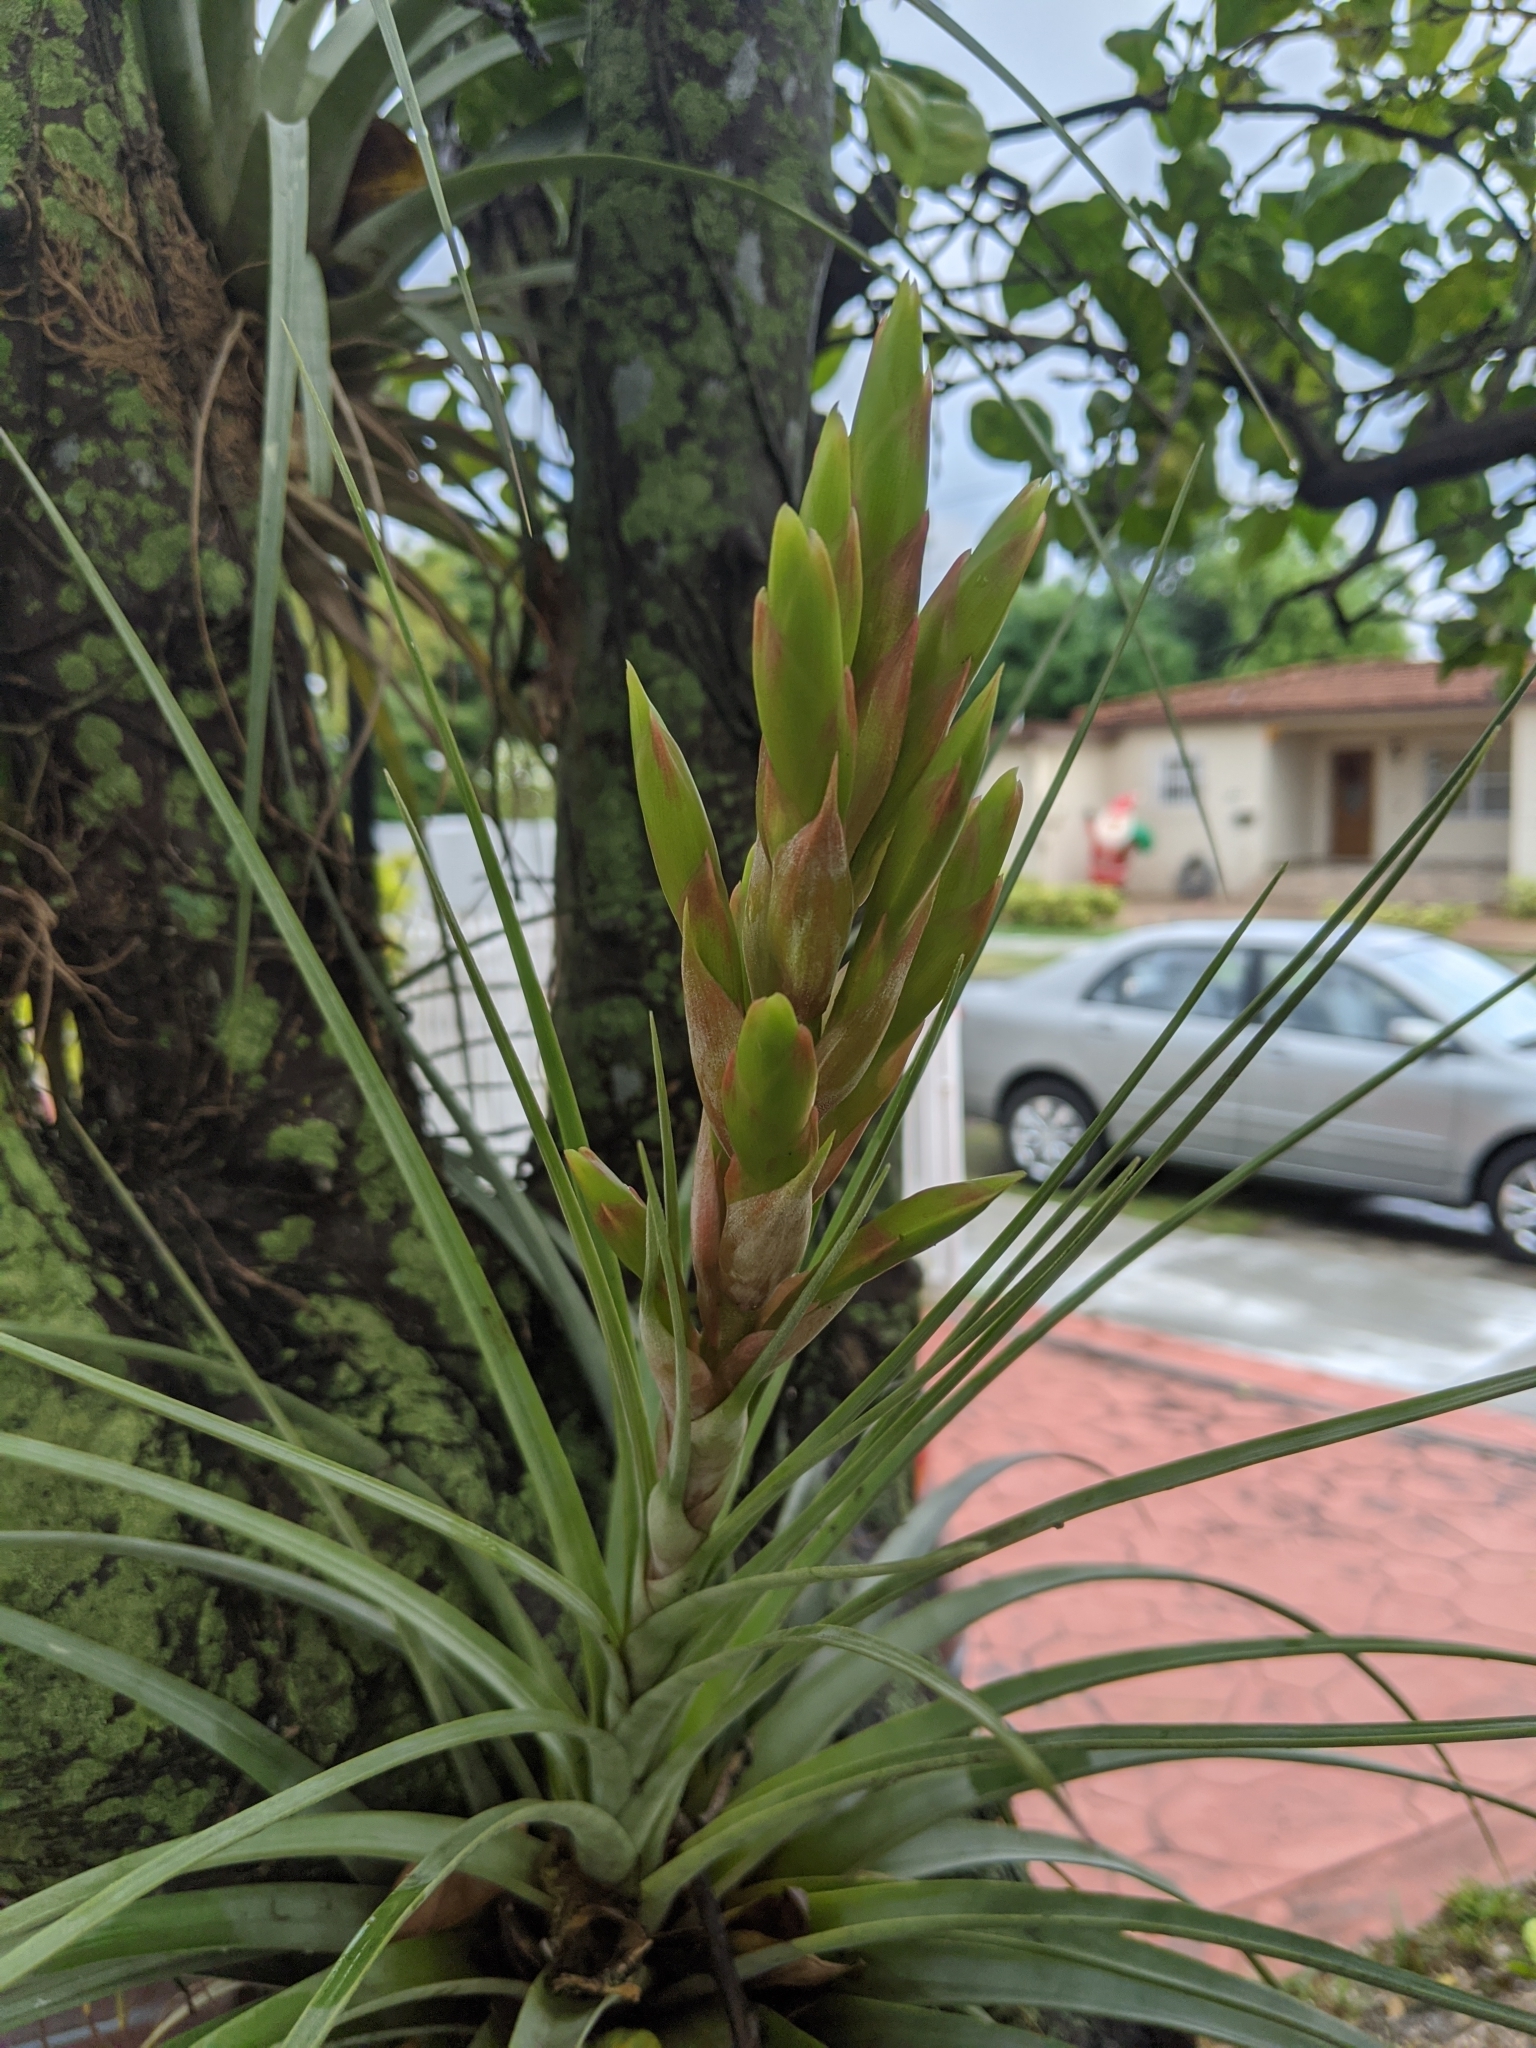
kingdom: Plantae
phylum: Tracheophyta
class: Liliopsida
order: Poales
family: Bromeliaceae
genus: Tillandsia
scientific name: Tillandsia fasciculata
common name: Giant airplant
